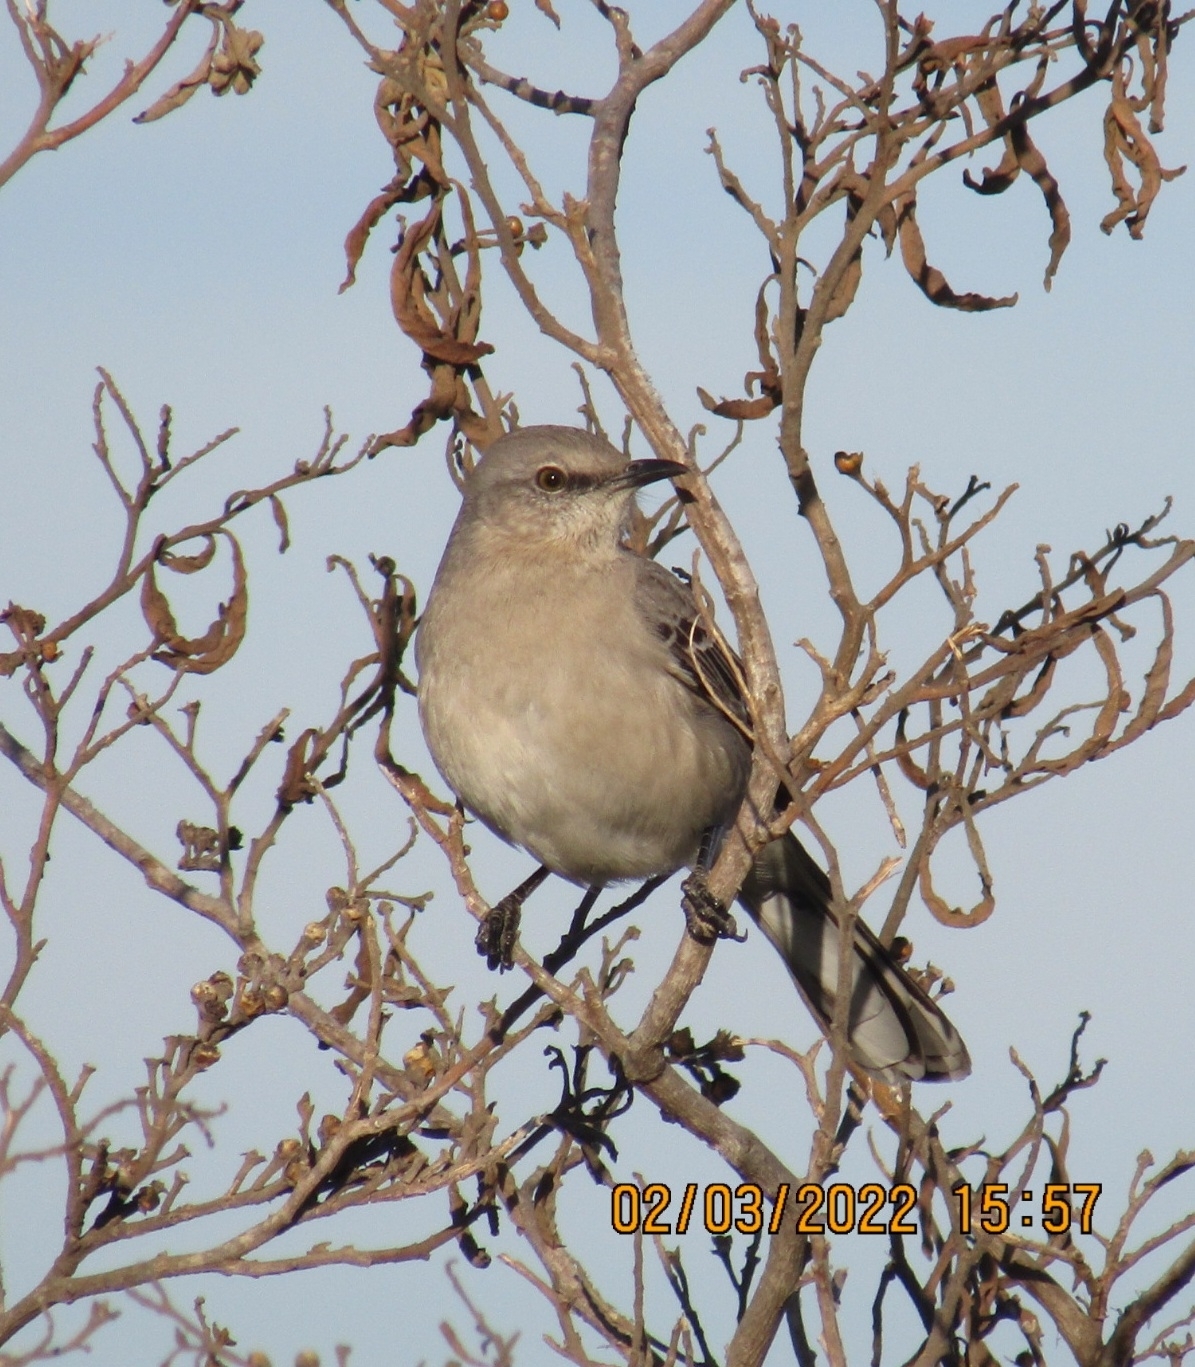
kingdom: Animalia
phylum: Chordata
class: Aves
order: Passeriformes
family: Mimidae
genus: Mimus
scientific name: Mimus polyglottos
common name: Northern mockingbird
